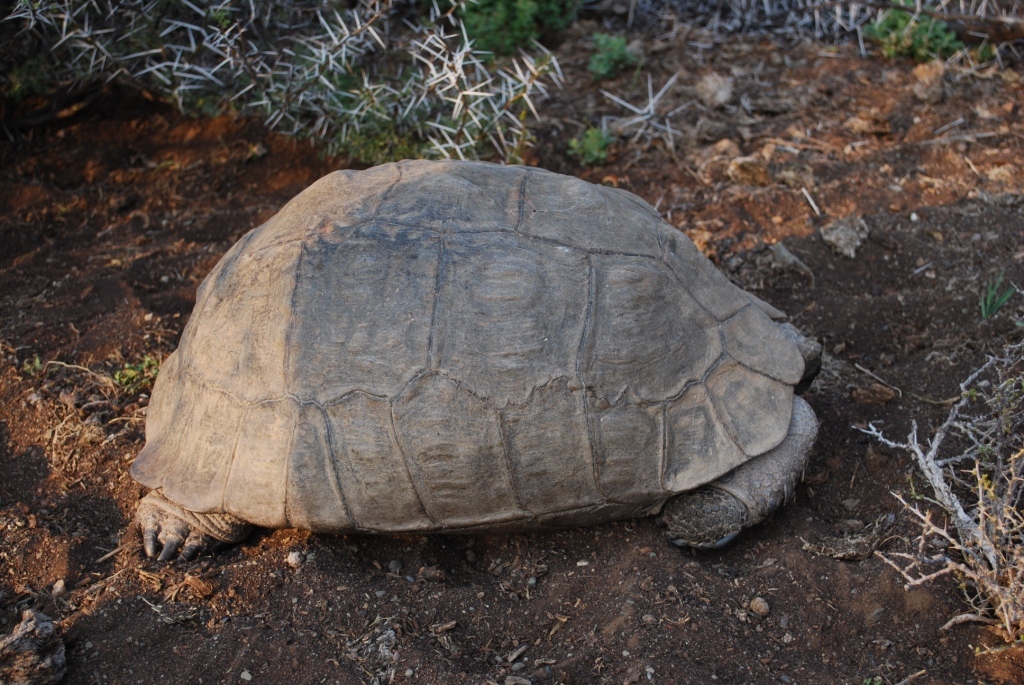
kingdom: Animalia
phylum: Chordata
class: Testudines
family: Testudinidae
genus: Stigmochelys
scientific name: Stigmochelys pardalis
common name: Leopard tortoise
